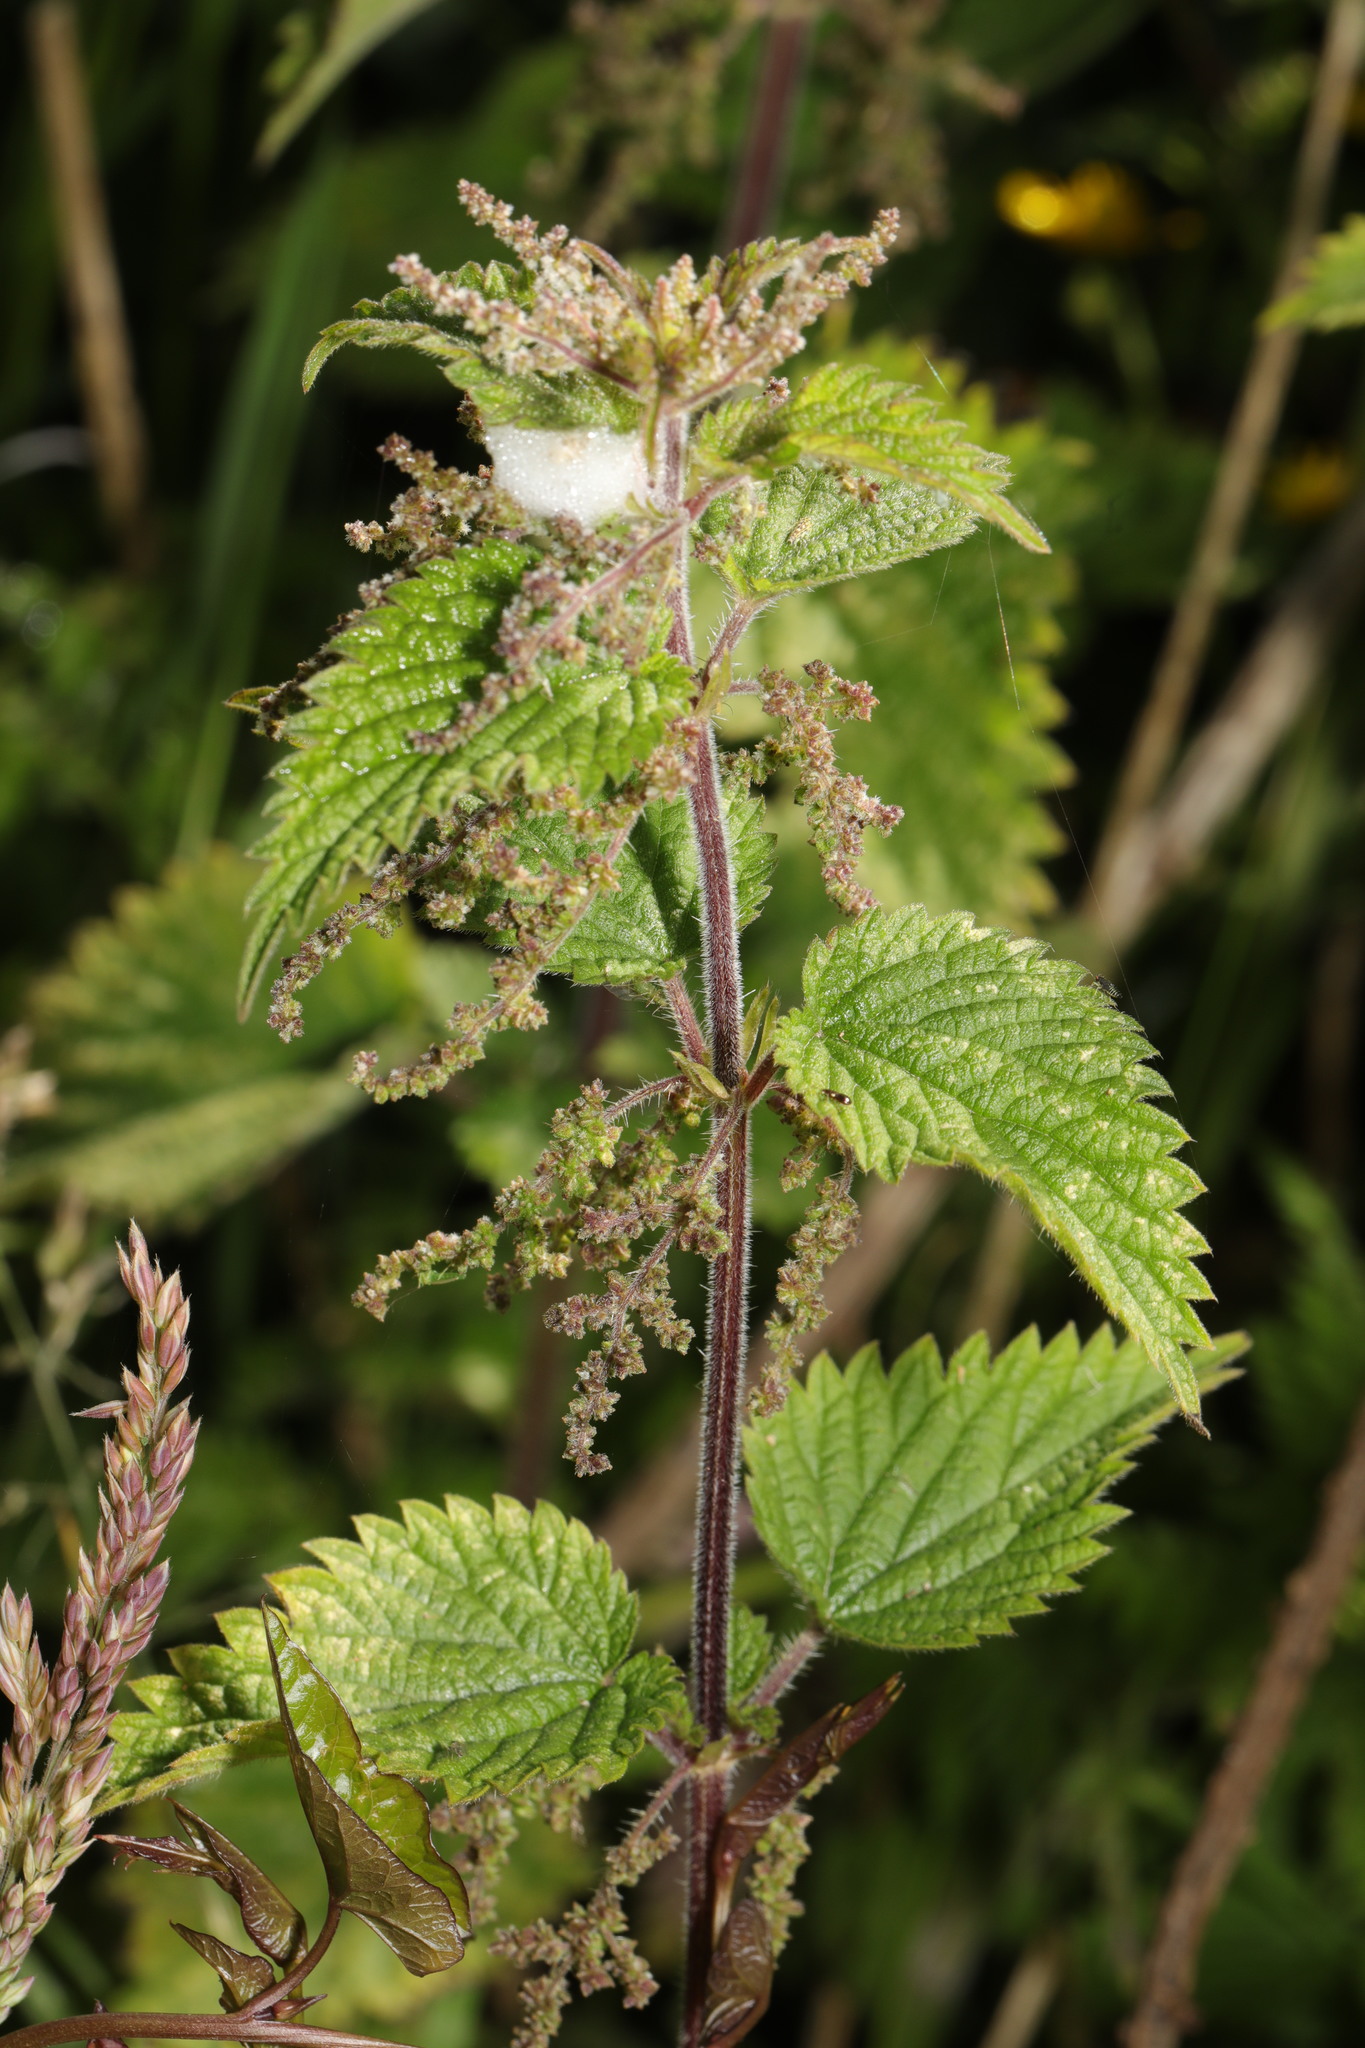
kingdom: Plantae
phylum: Tracheophyta
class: Magnoliopsida
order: Rosales
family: Urticaceae
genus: Urtica
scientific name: Urtica dioica
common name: Common nettle
